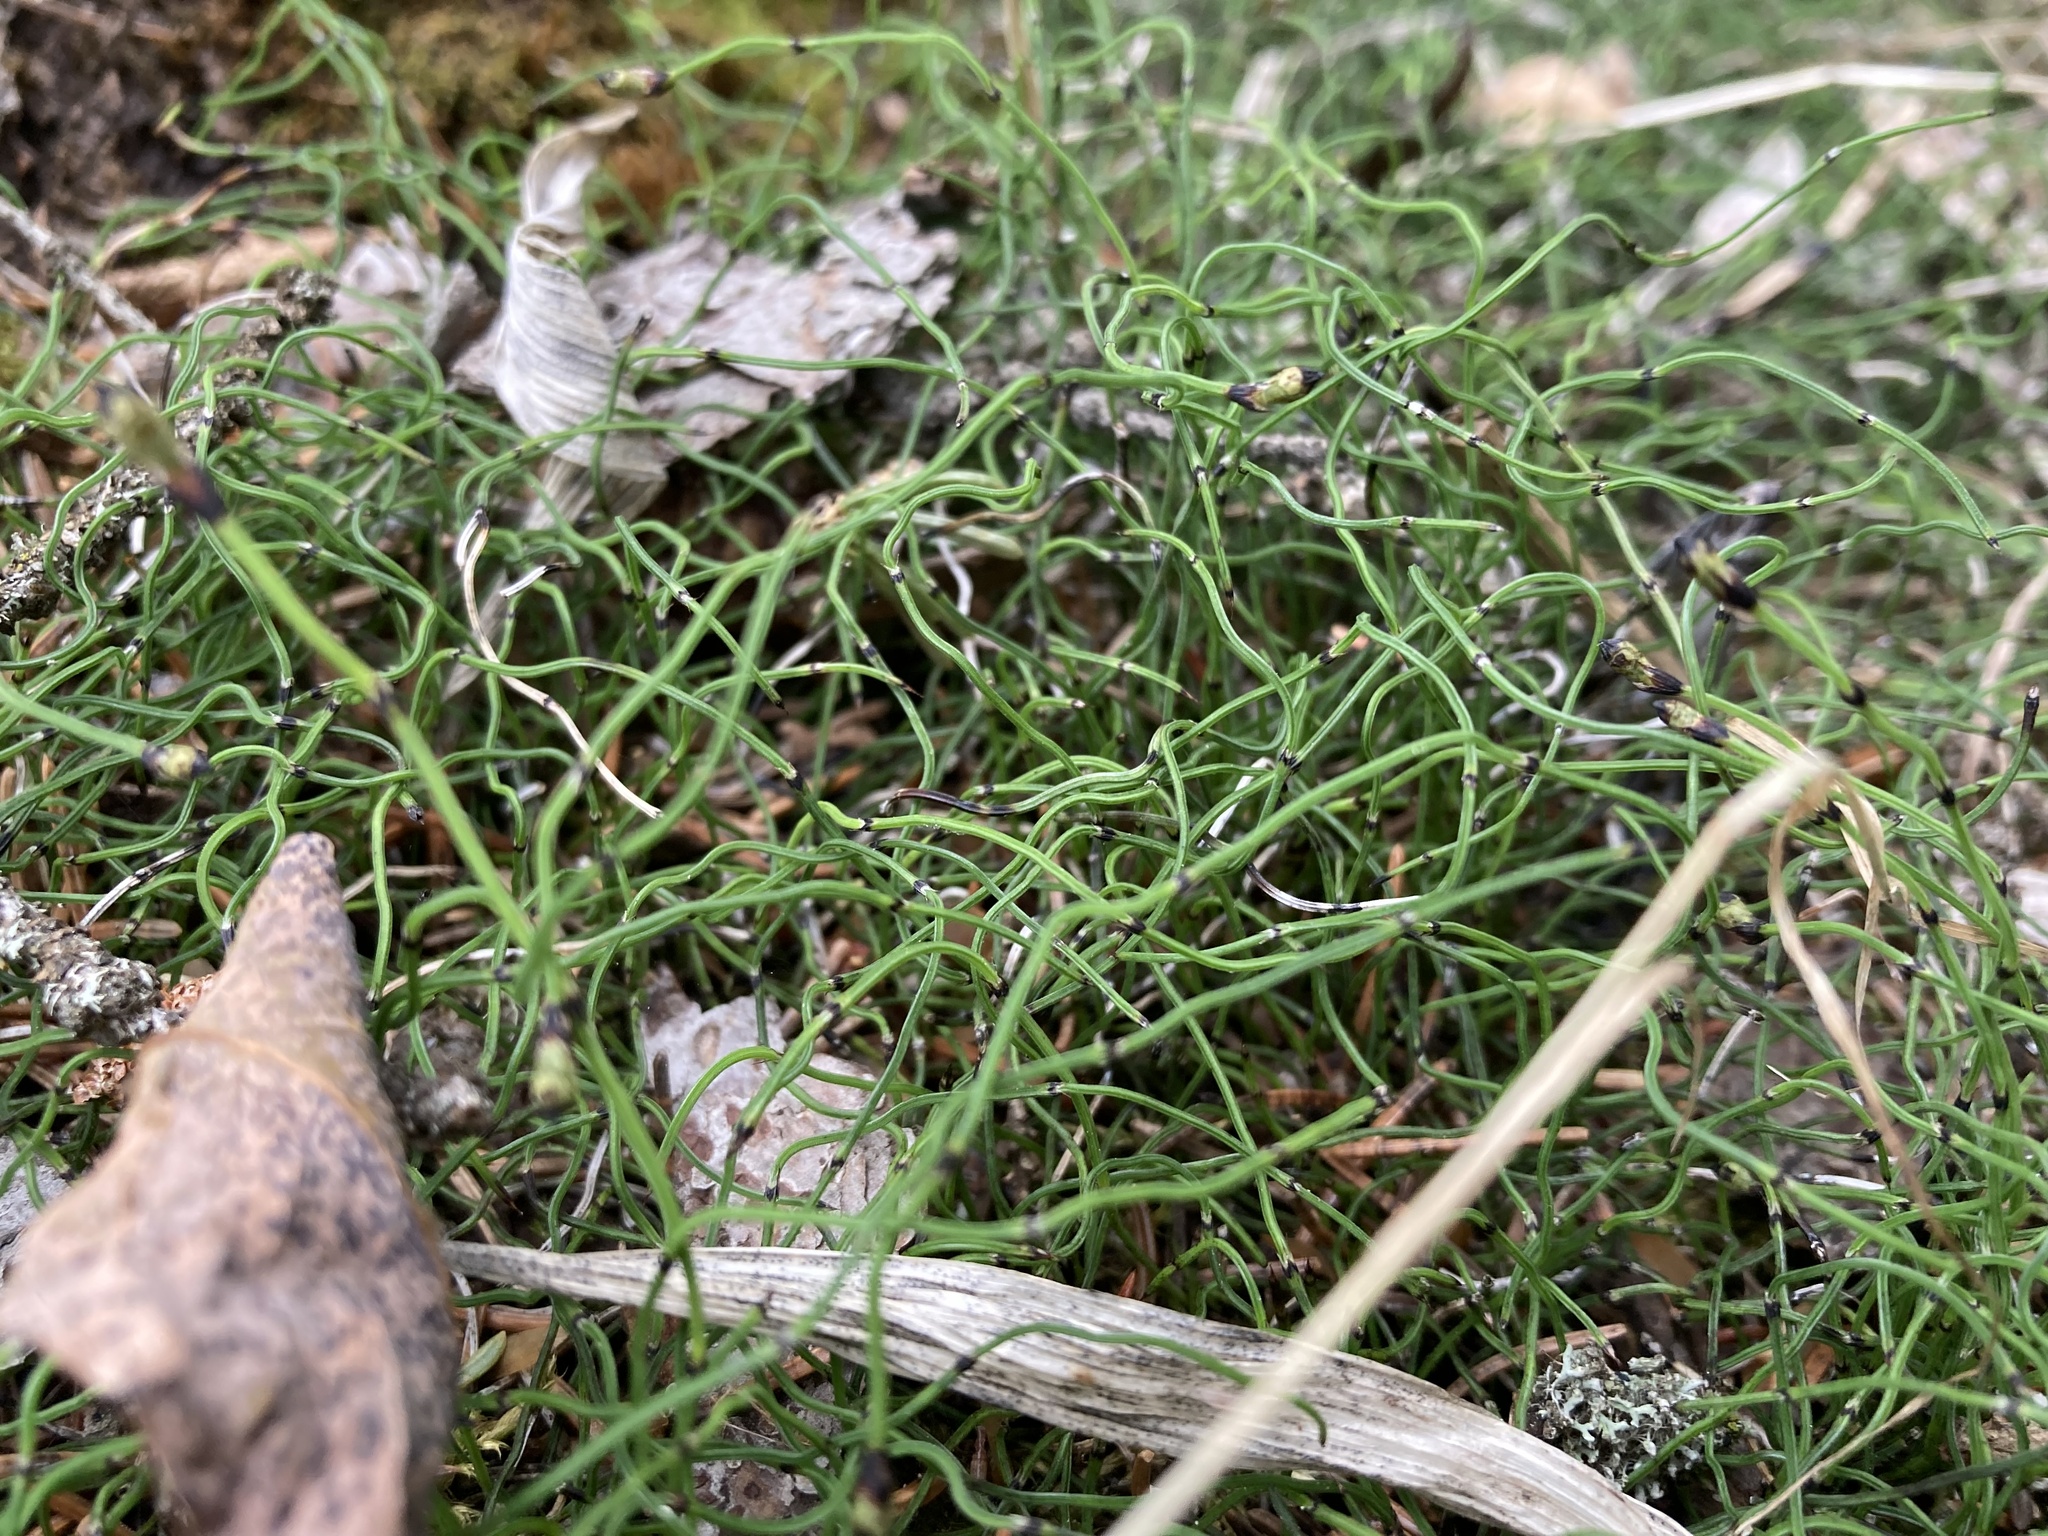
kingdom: Plantae
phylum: Tracheophyta
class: Polypodiopsida
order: Equisetales
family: Equisetaceae
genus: Equisetum
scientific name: Equisetum scirpoides
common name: Delicate horsetail
